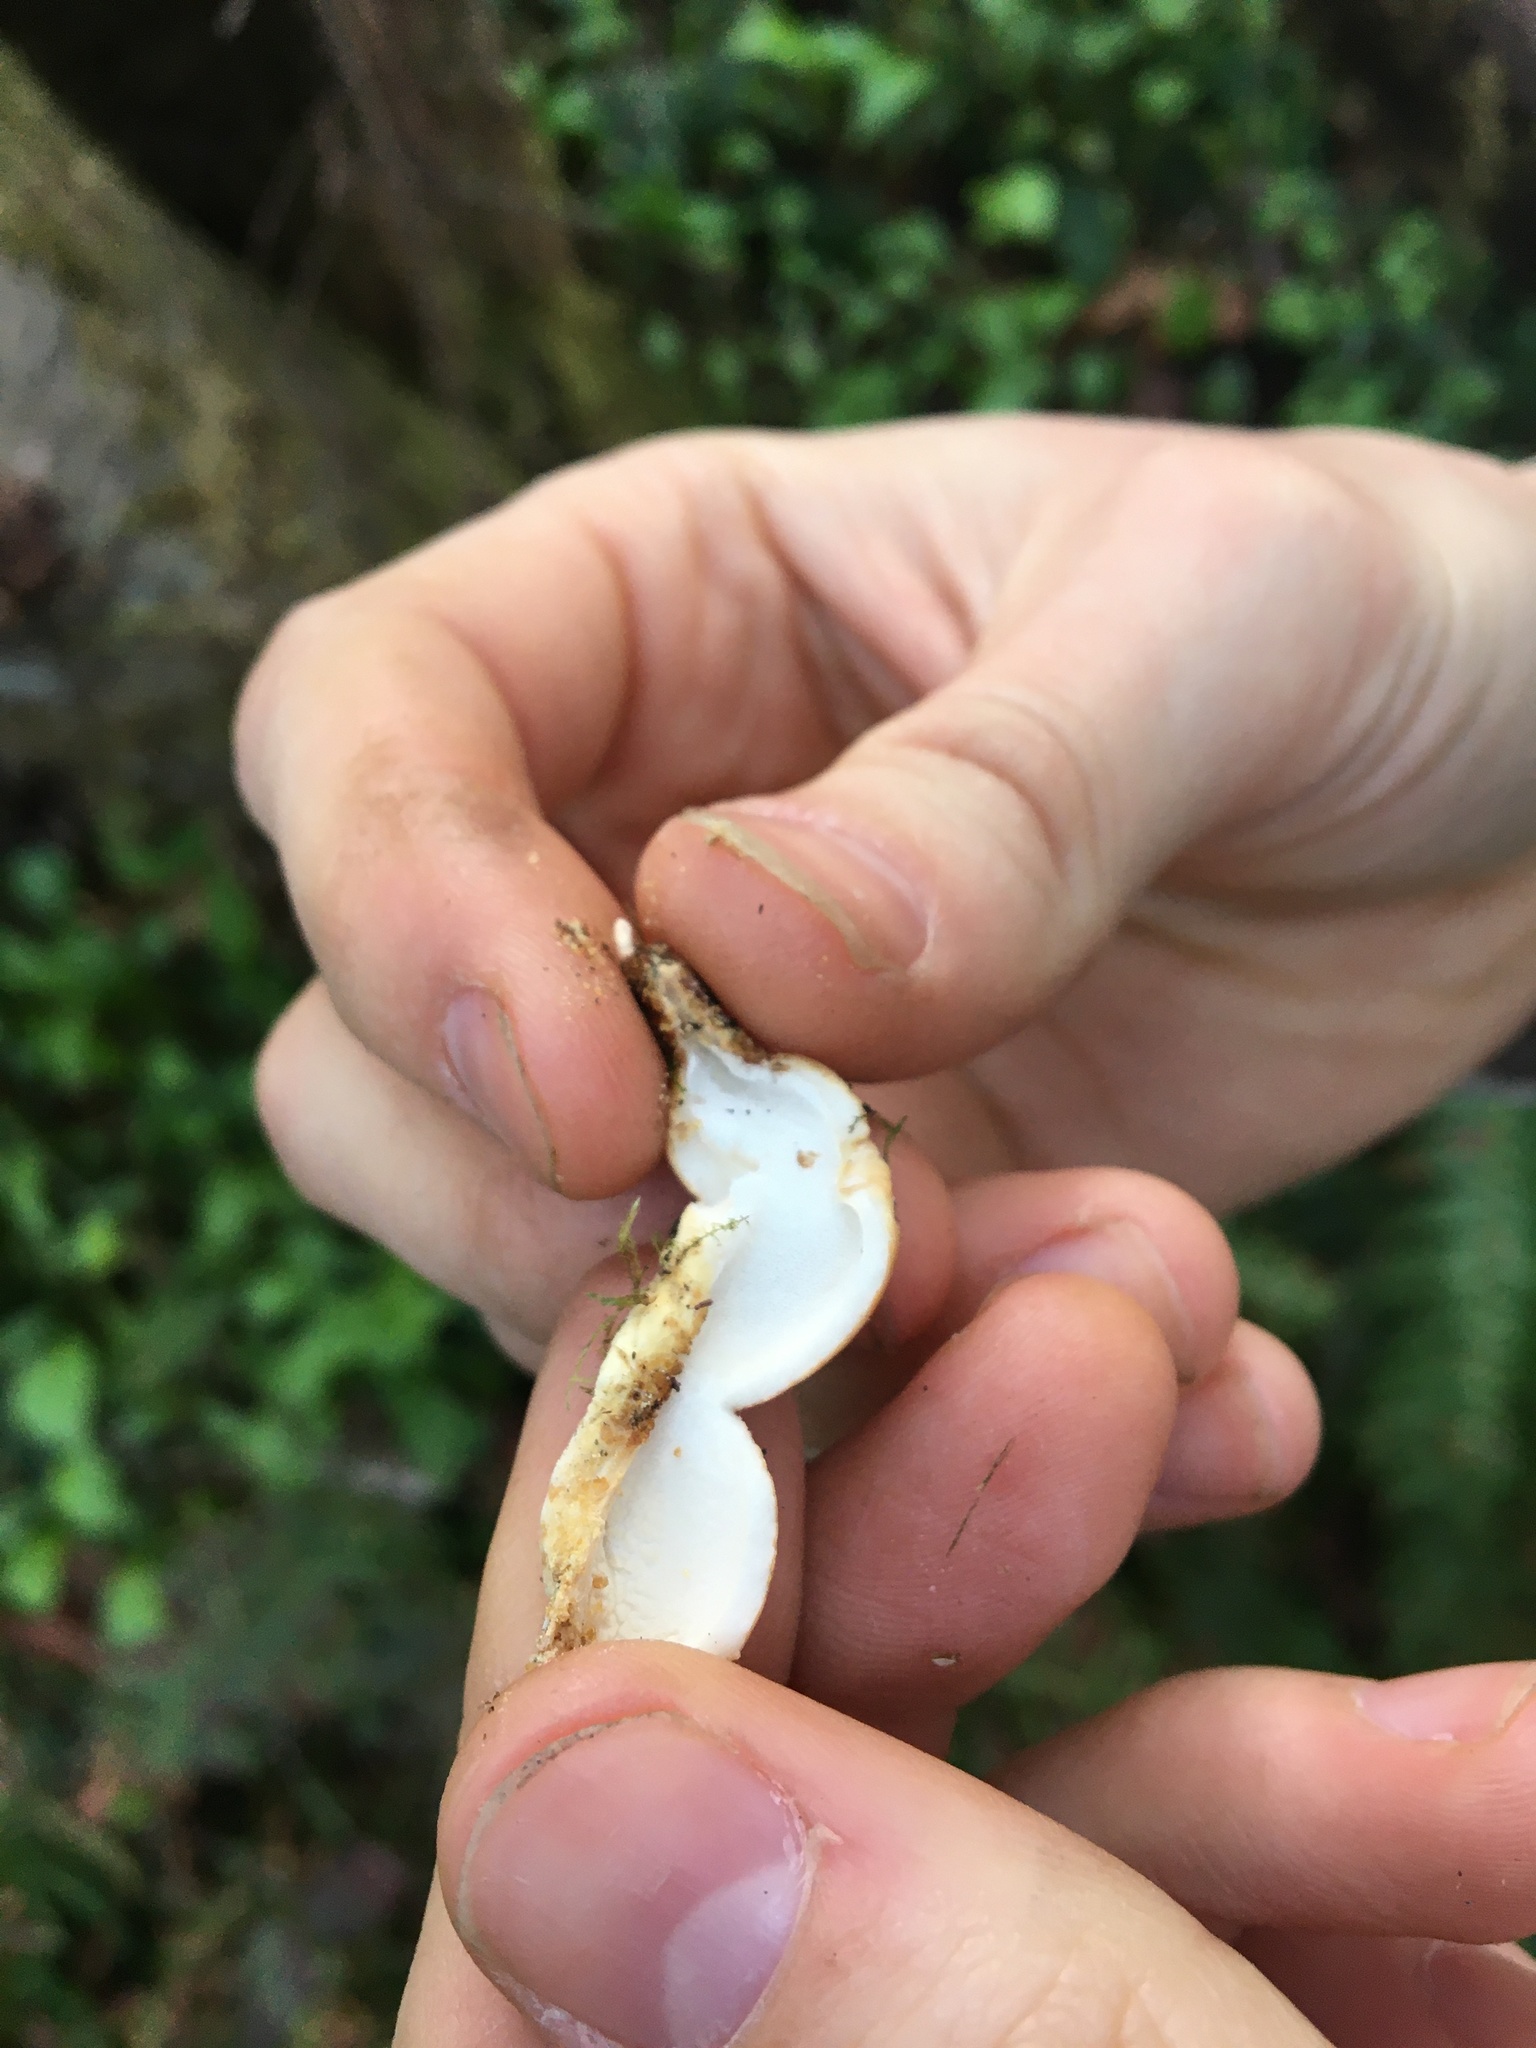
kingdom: Fungi
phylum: Basidiomycota
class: Agaricomycetes
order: Polyporales
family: Polyporaceae
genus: Cryptoporus
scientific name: Cryptoporus volvatus
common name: Veiled polypore
